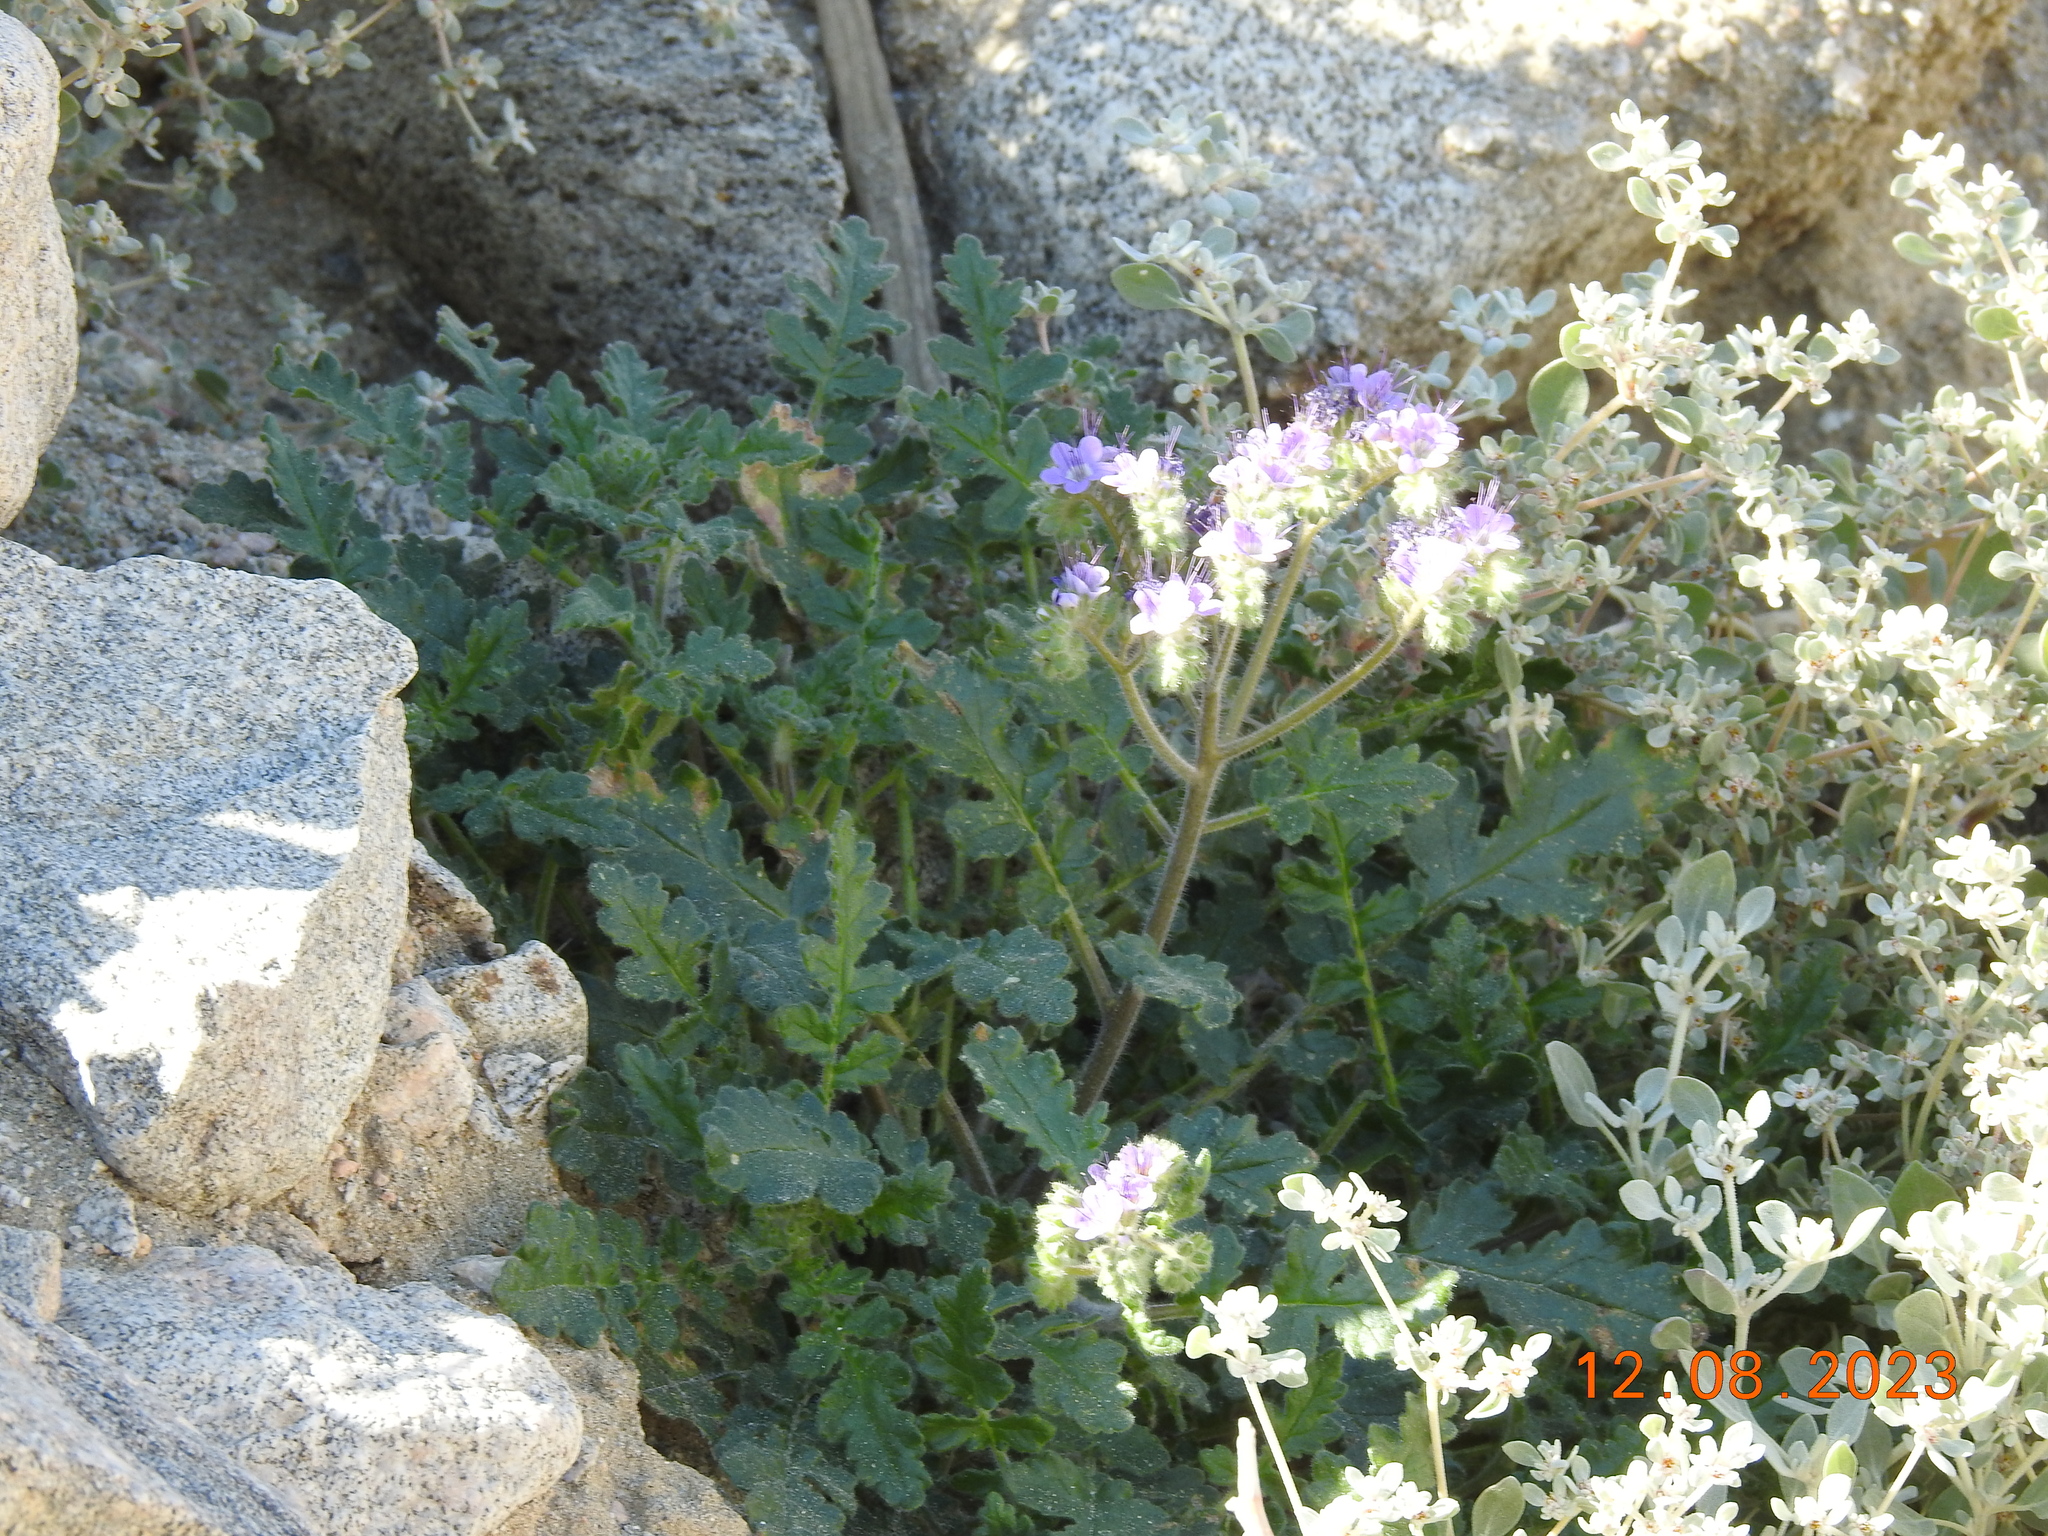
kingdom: Plantae
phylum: Tracheophyta
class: Magnoliopsida
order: Boraginales
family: Hydrophyllaceae
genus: Phacelia
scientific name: Phacelia crenulata
